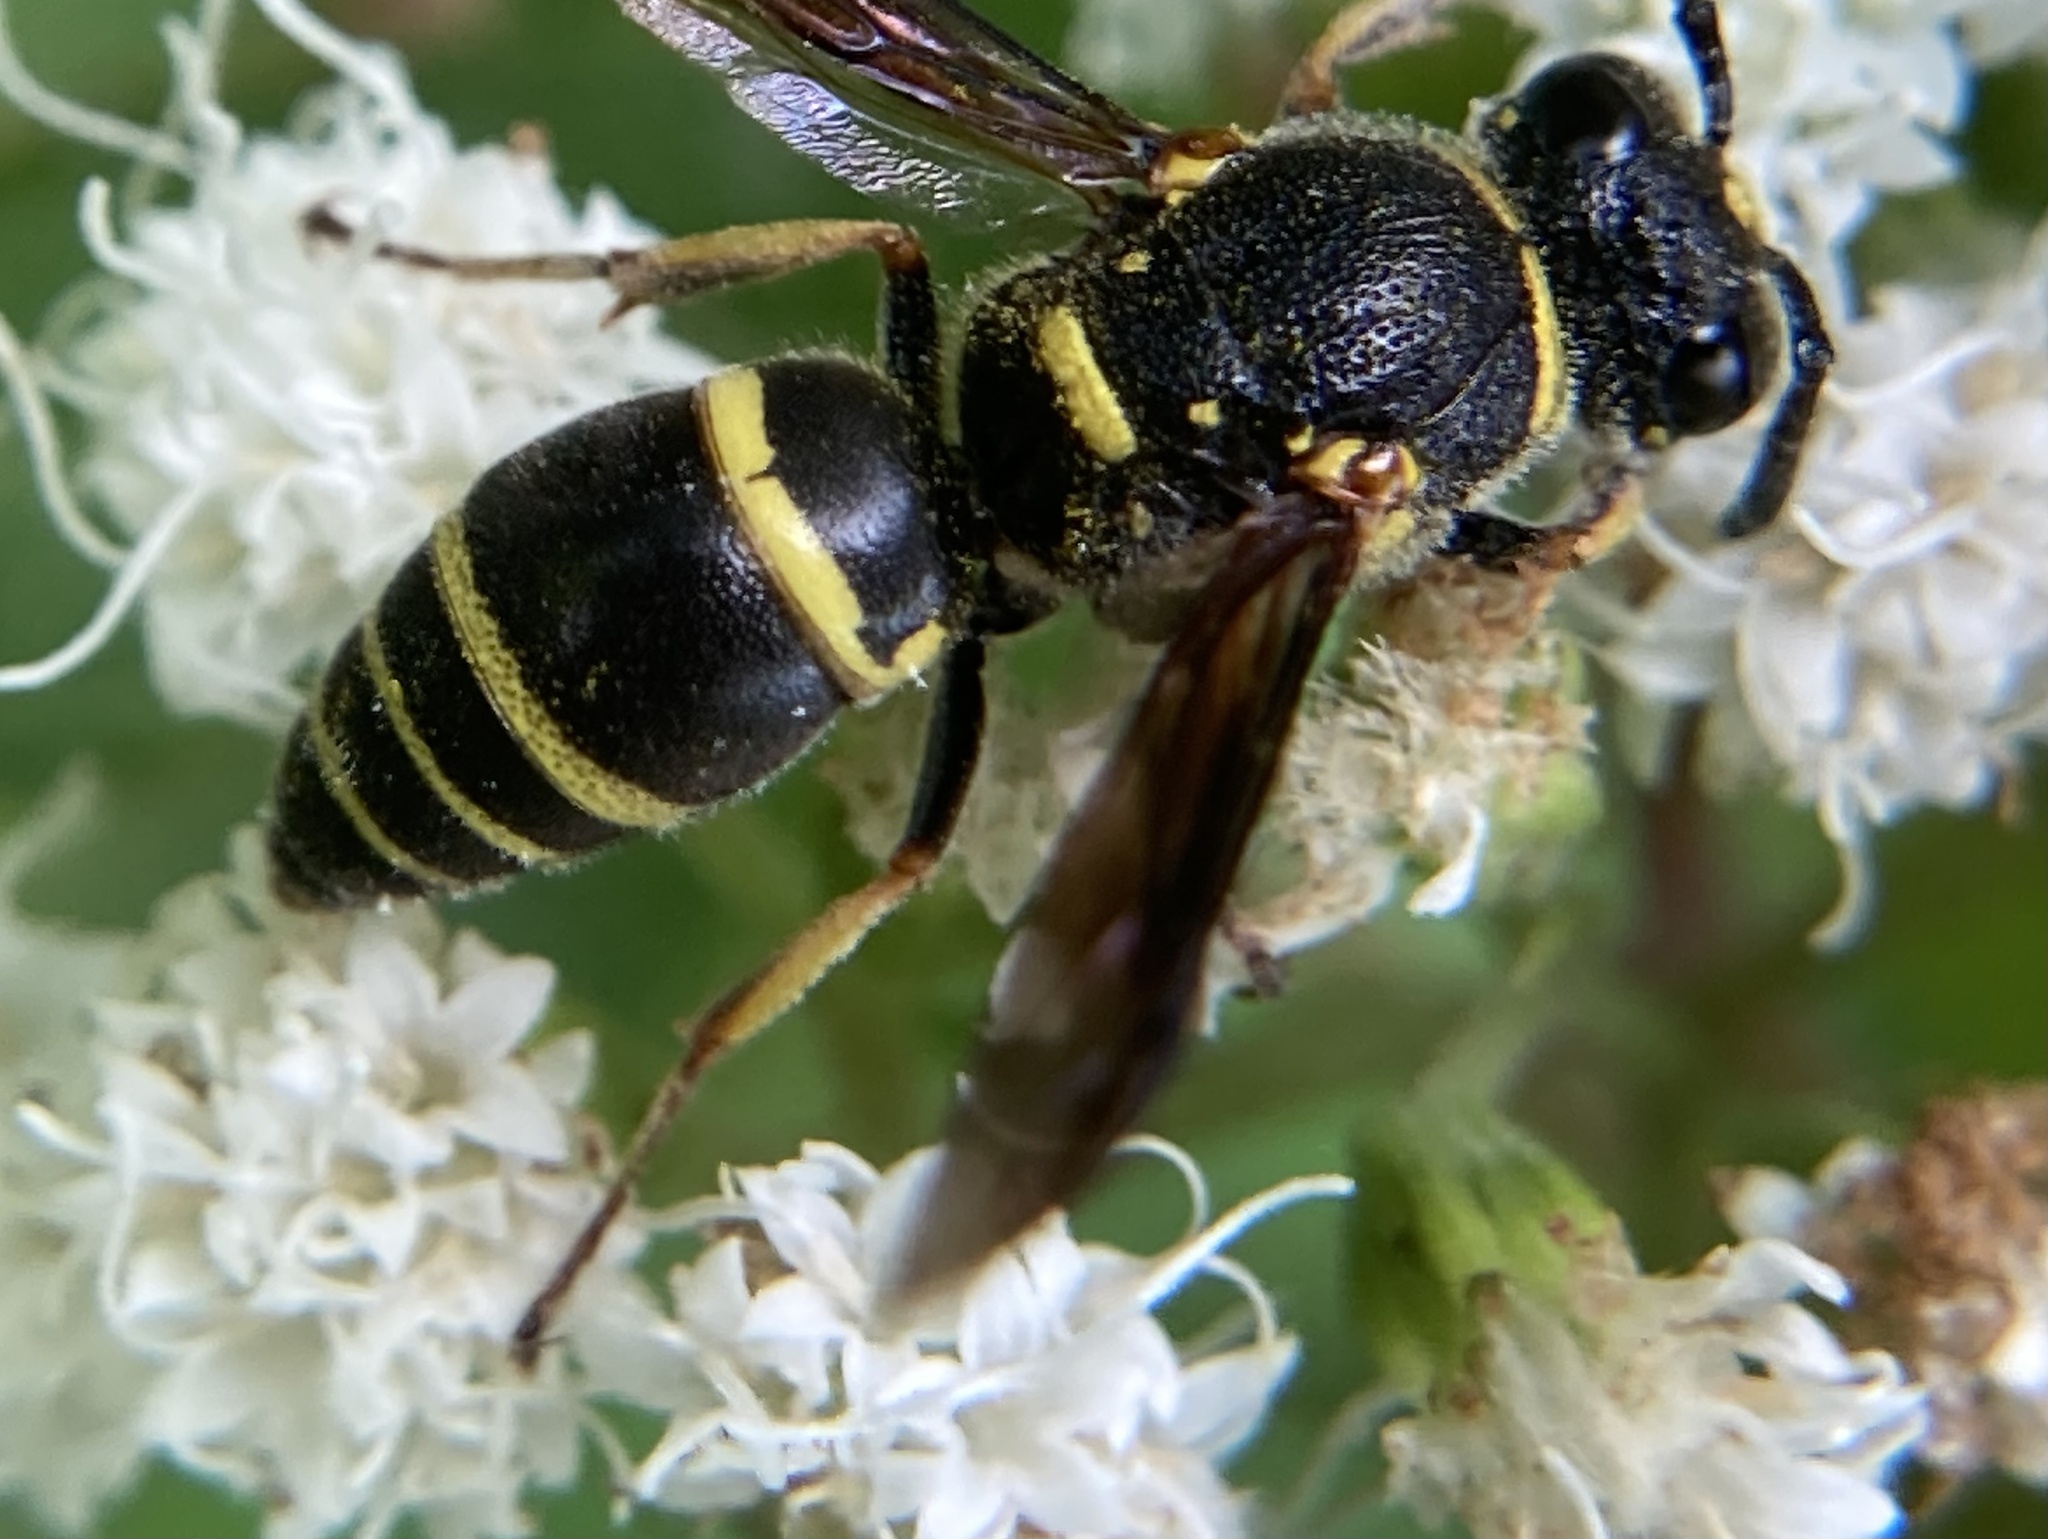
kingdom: Animalia
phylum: Arthropoda
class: Insecta
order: Hymenoptera
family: Eumenidae
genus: Euodynerus
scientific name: Euodynerus foraminatus
